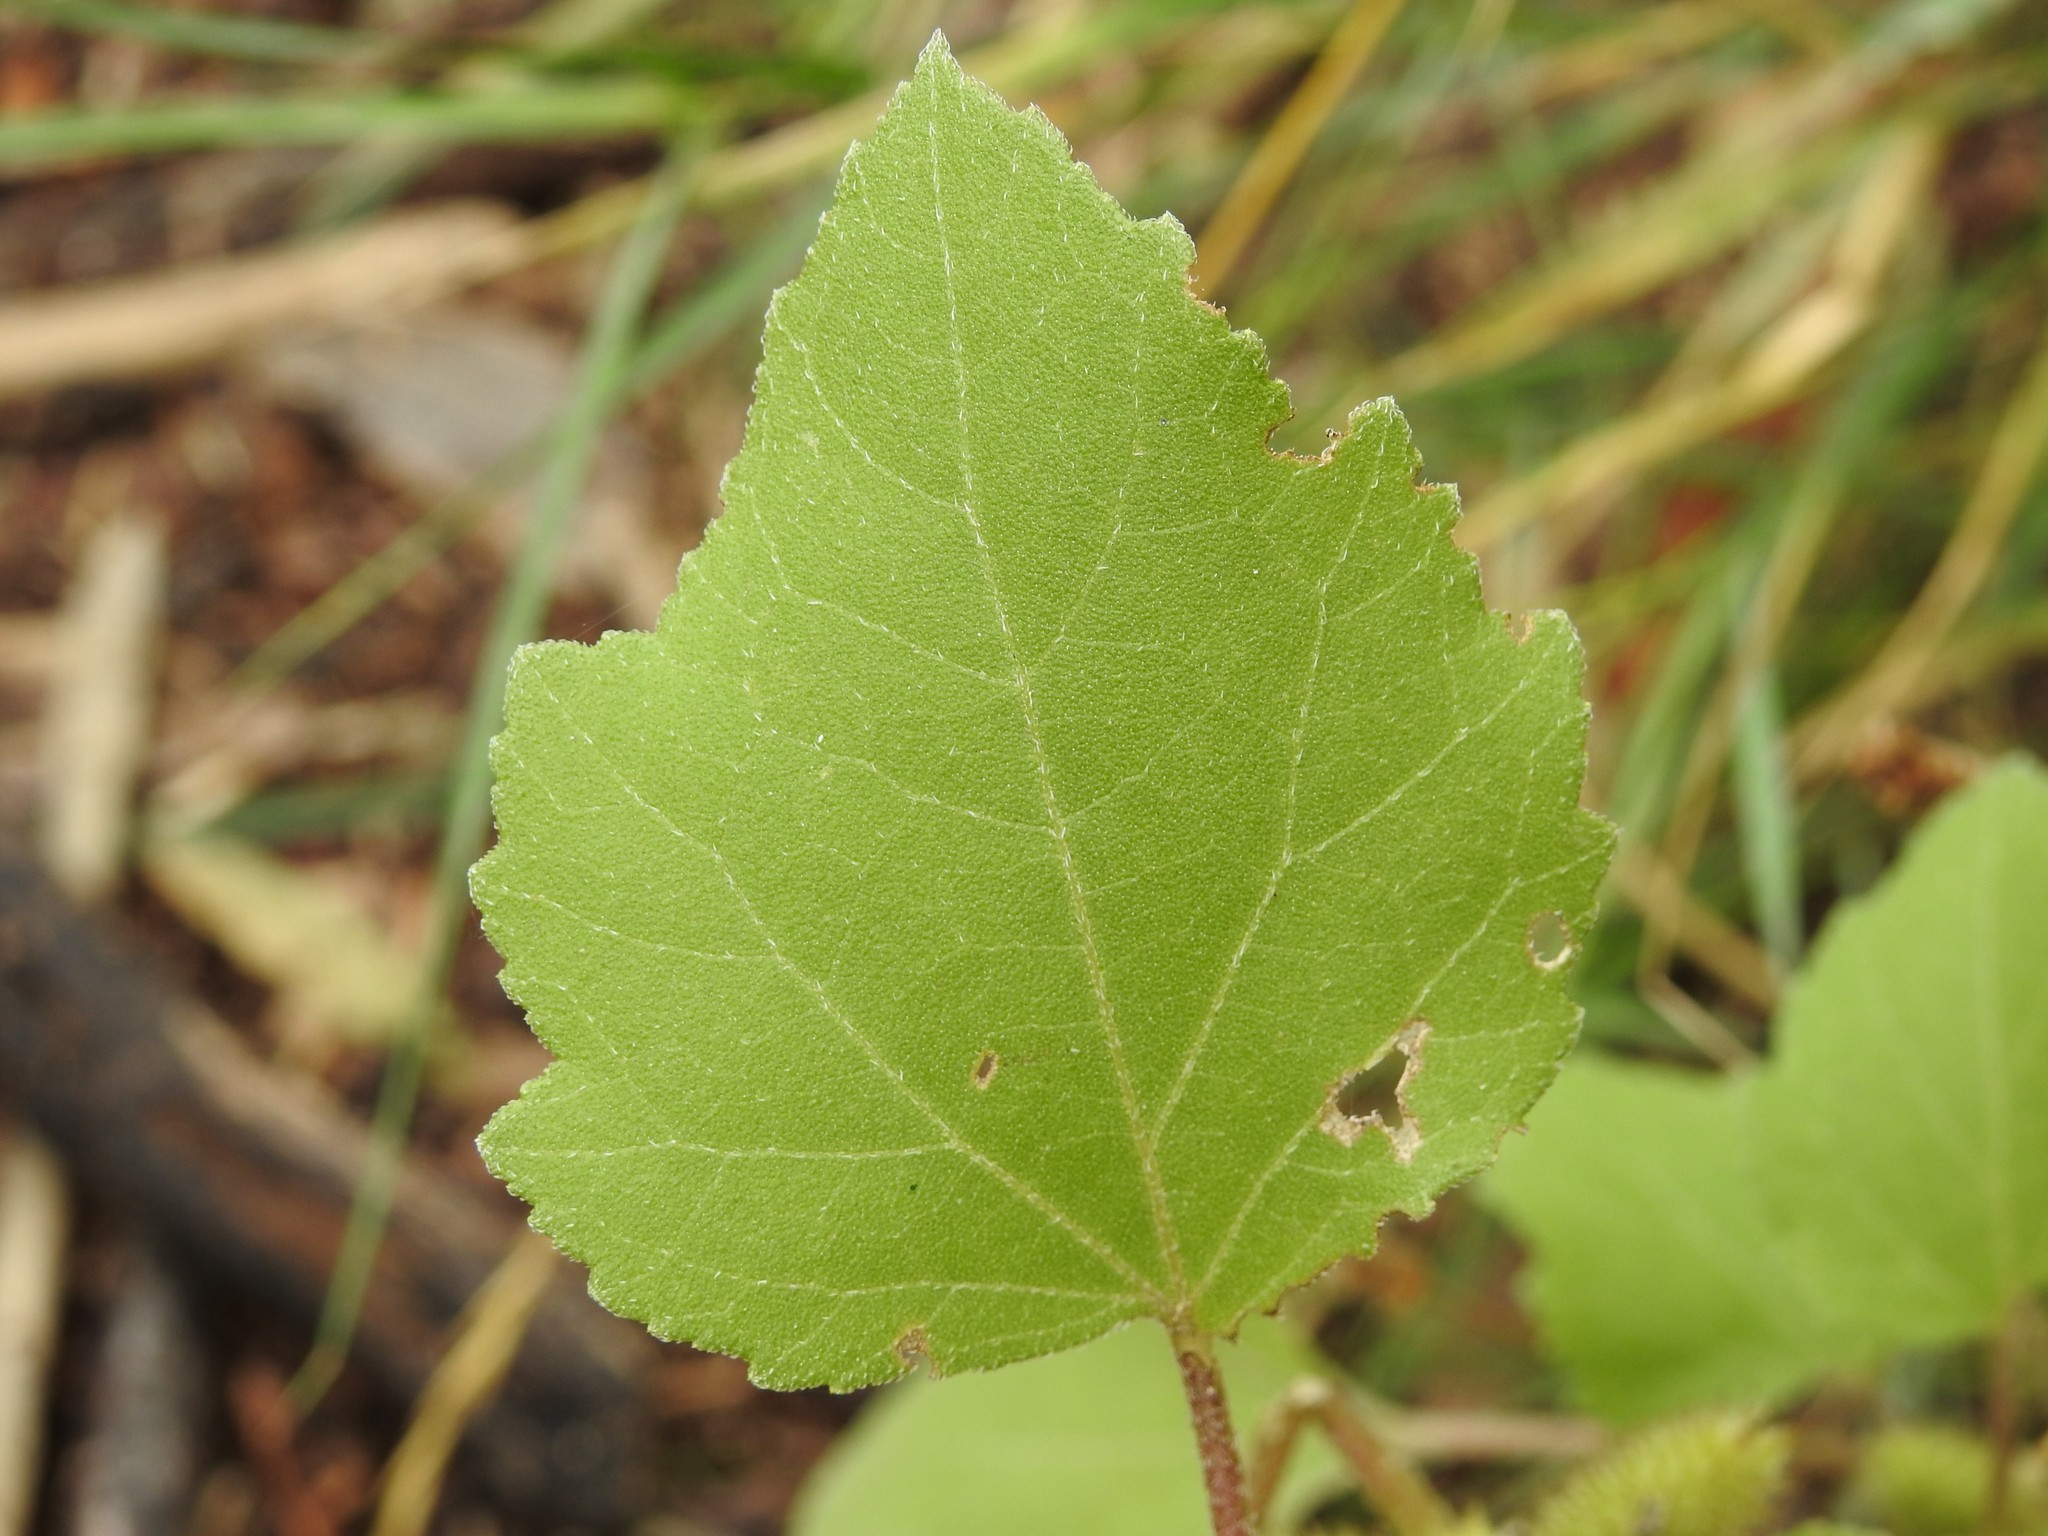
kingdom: Plantae
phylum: Tracheophyta
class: Magnoliopsida
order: Asterales
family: Asteraceae
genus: Xanthium
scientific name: Xanthium strumarium
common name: Rough cocklebur
